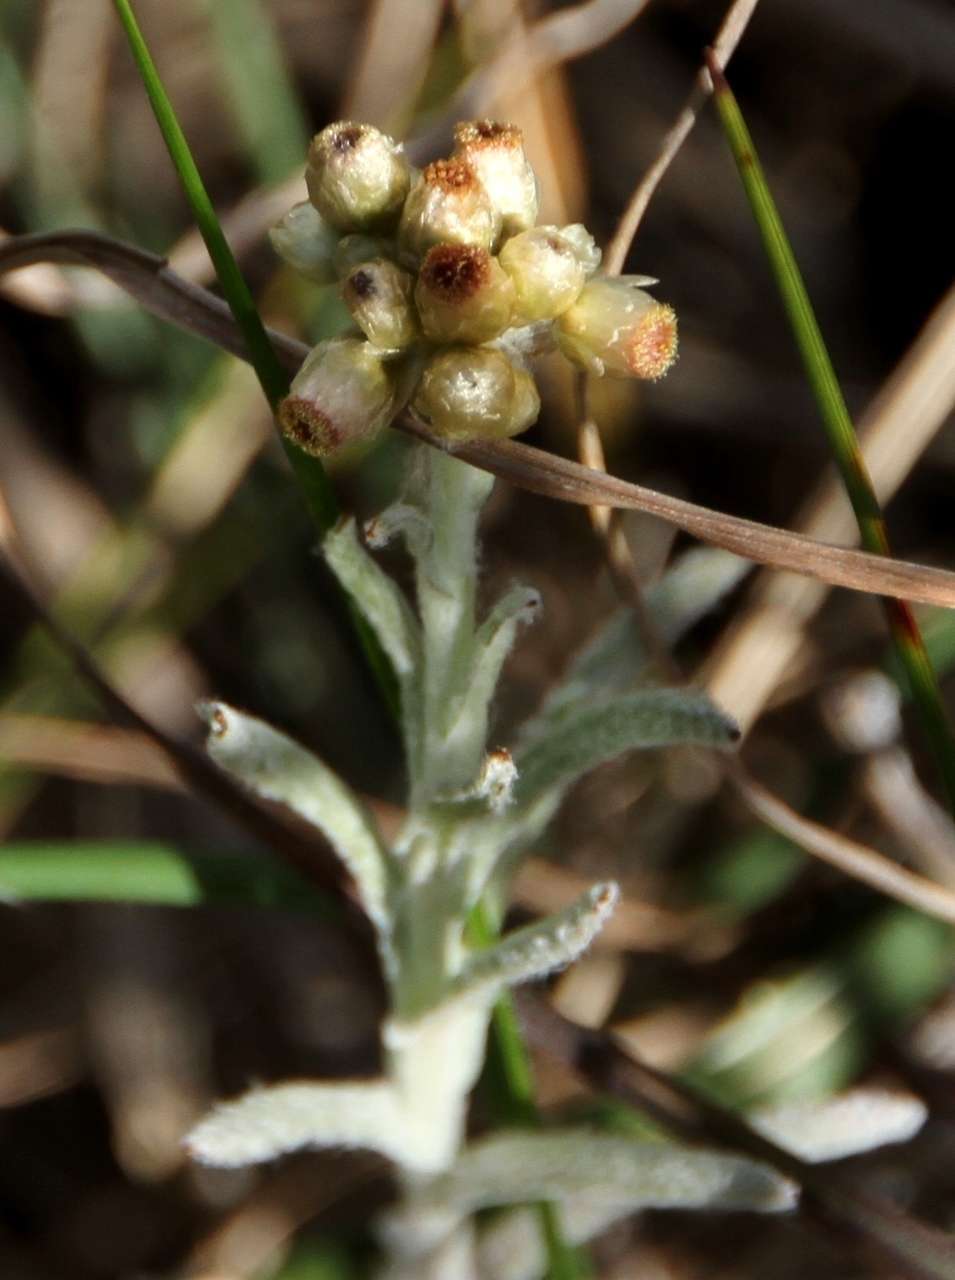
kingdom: Plantae
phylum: Tracheophyta
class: Magnoliopsida
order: Asterales
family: Asteraceae
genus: Helichrysum
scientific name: Helichrysum luteoalbum
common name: Daisy
